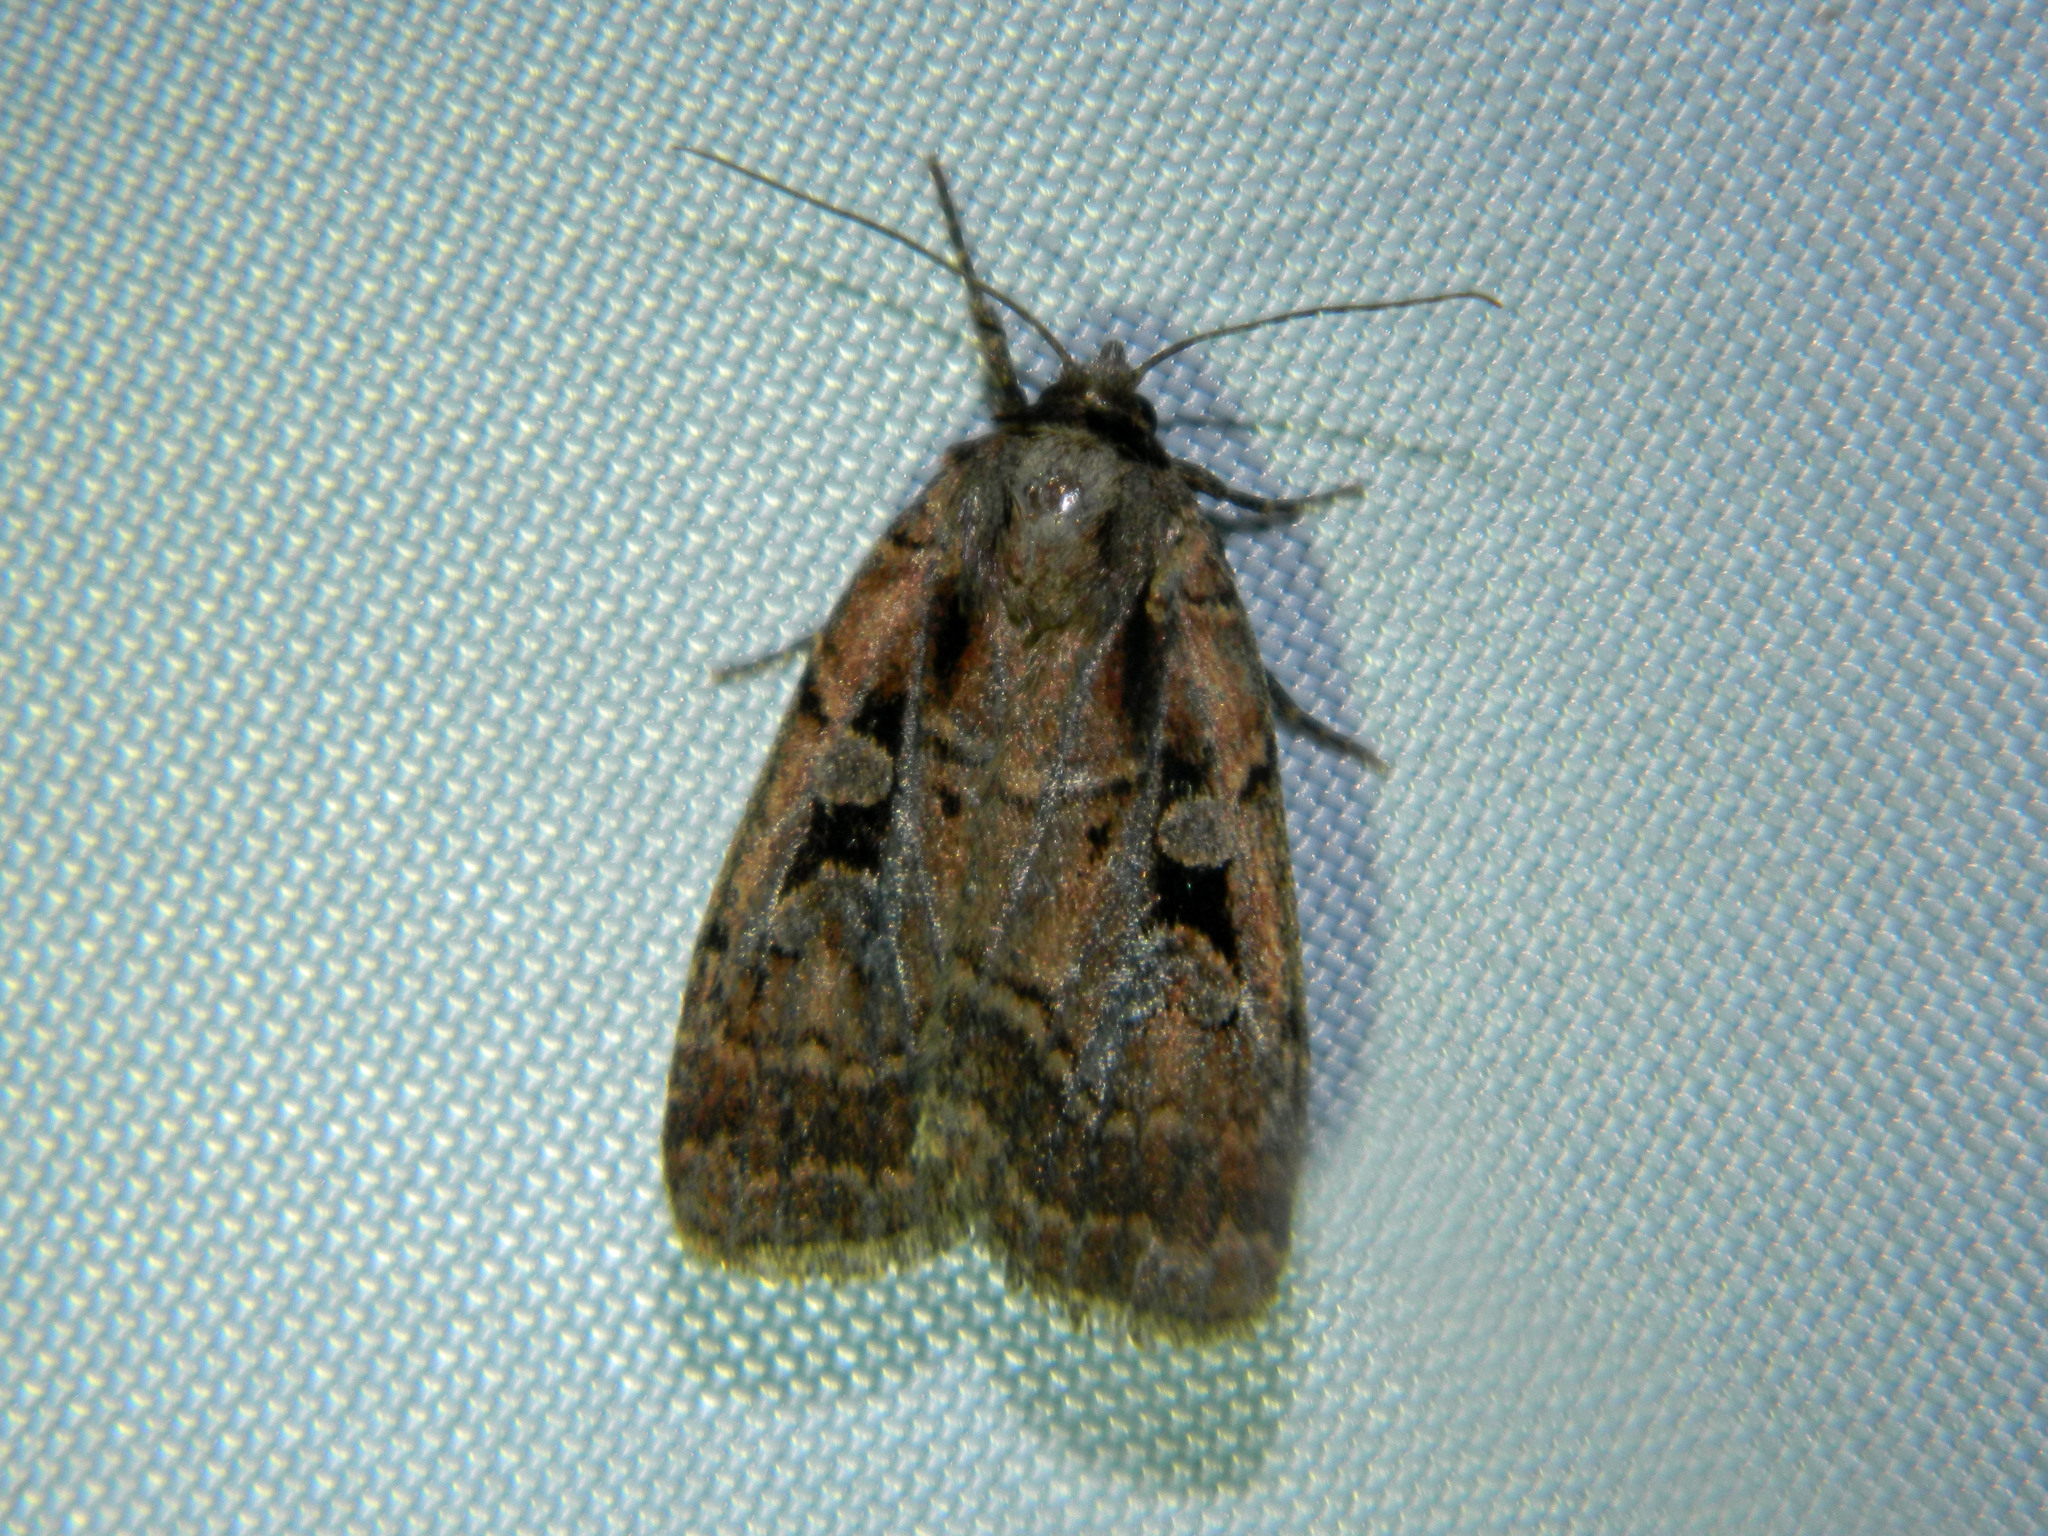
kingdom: Animalia
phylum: Arthropoda
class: Insecta
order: Lepidoptera
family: Noctuidae
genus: Eueretagrotis
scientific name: Eueretagrotis perattentus
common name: Two-spot dart moth
